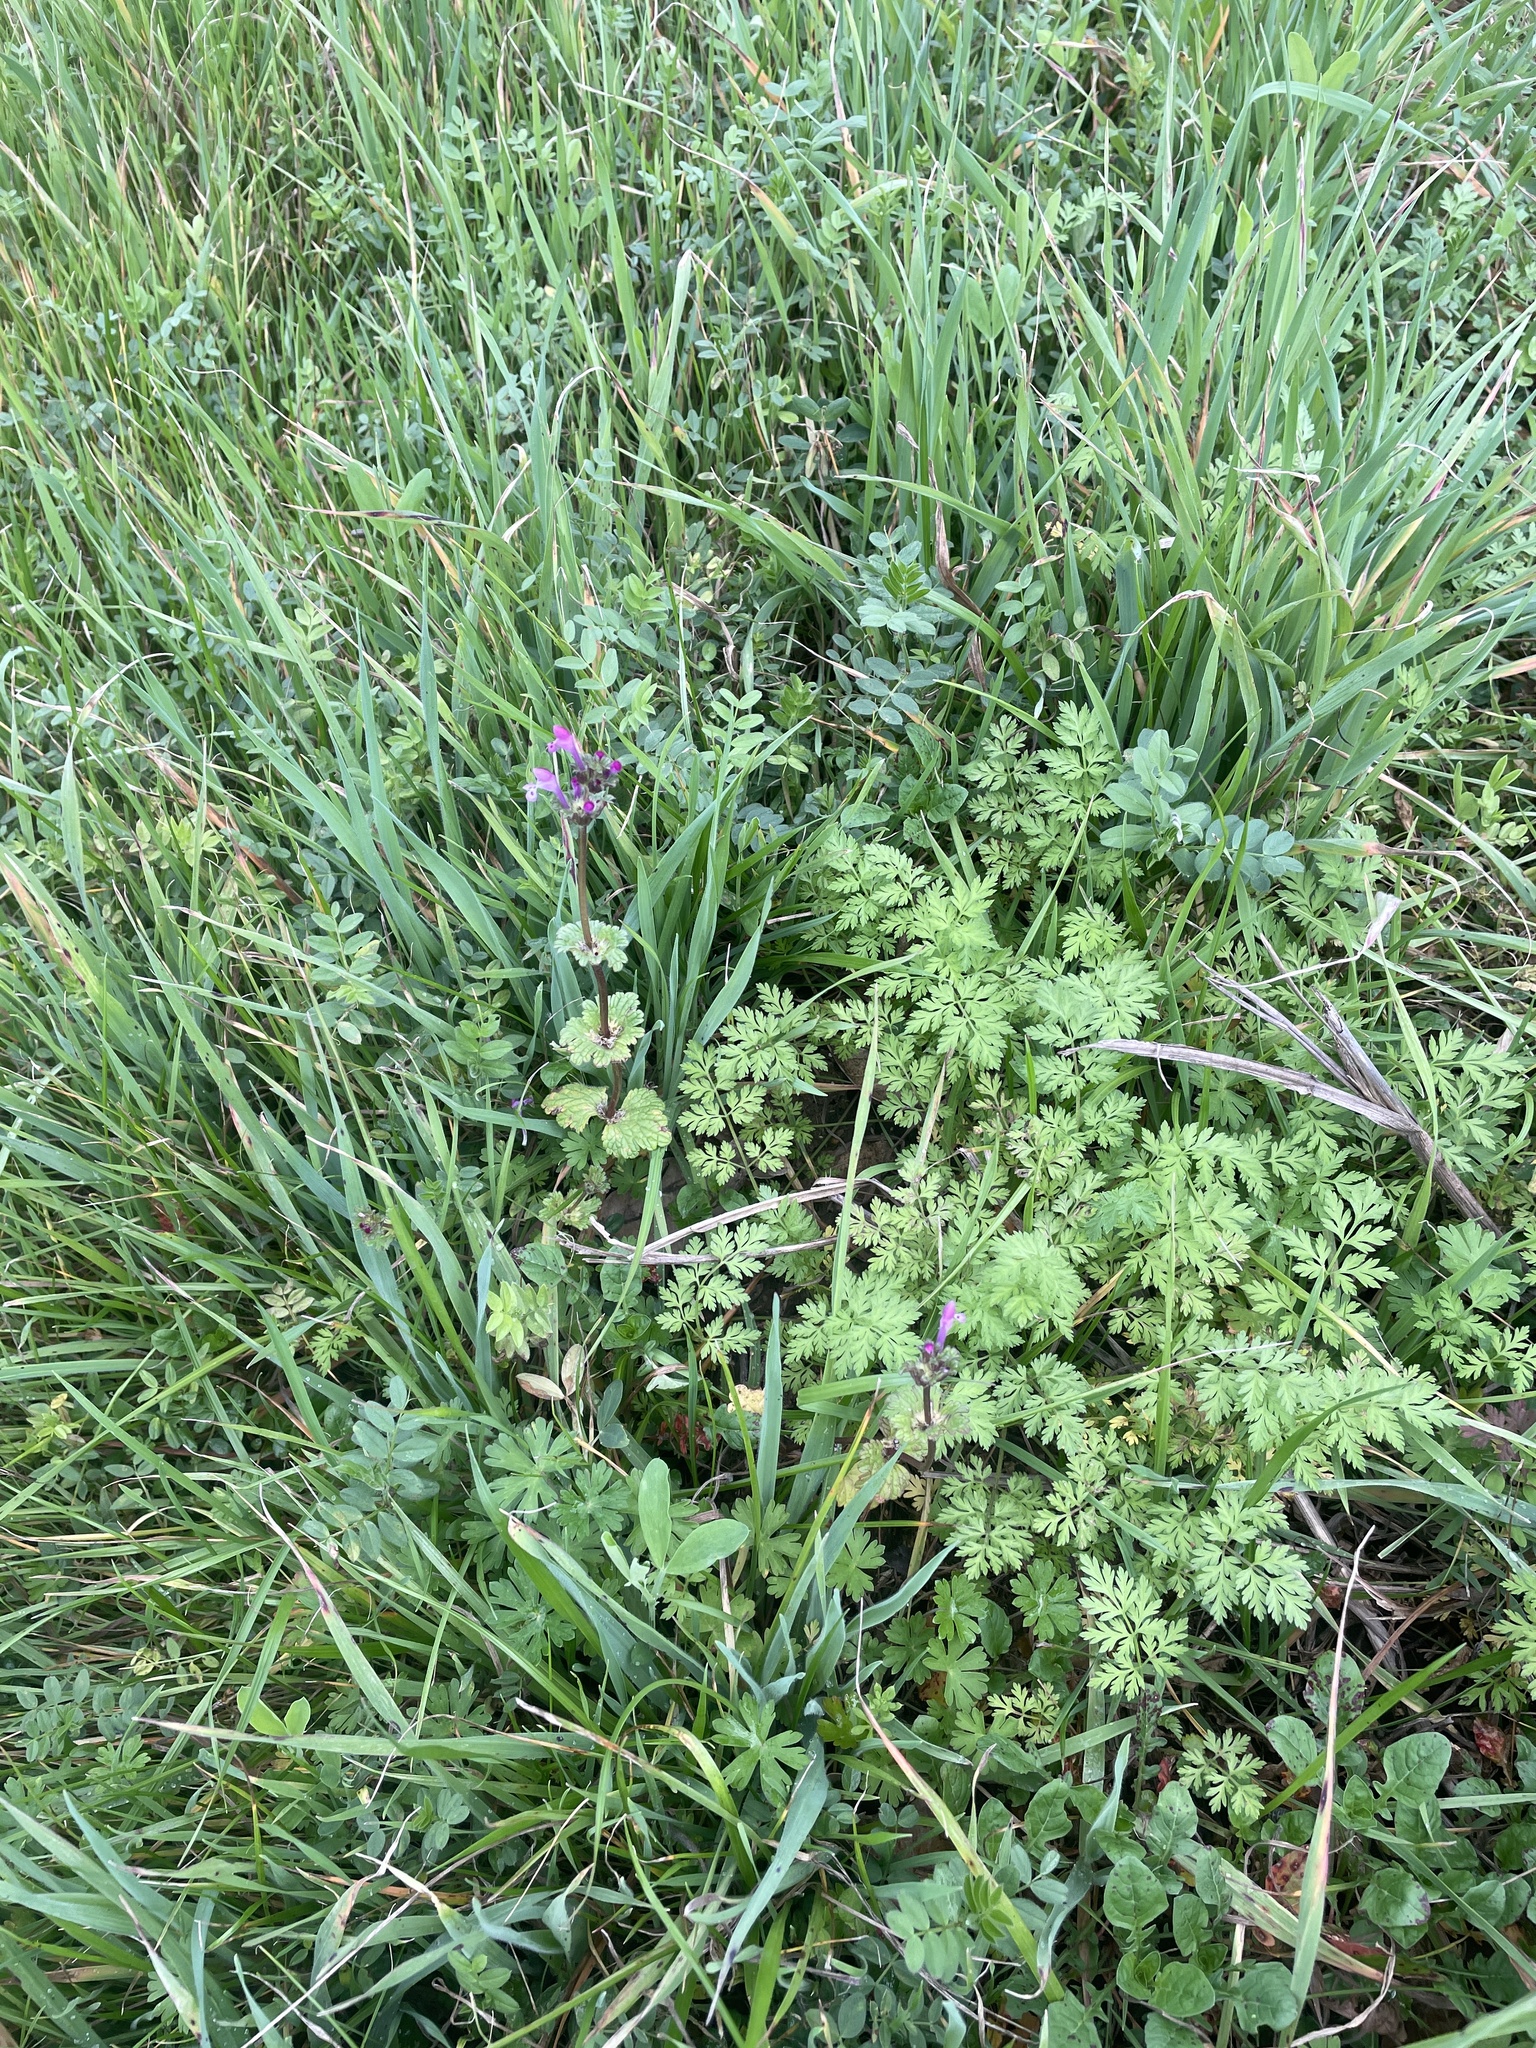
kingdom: Plantae
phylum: Tracheophyta
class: Magnoliopsida
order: Lamiales
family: Lamiaceae
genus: Lamium
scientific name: Lamium amplexicaule
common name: Henbit dead-nettle
